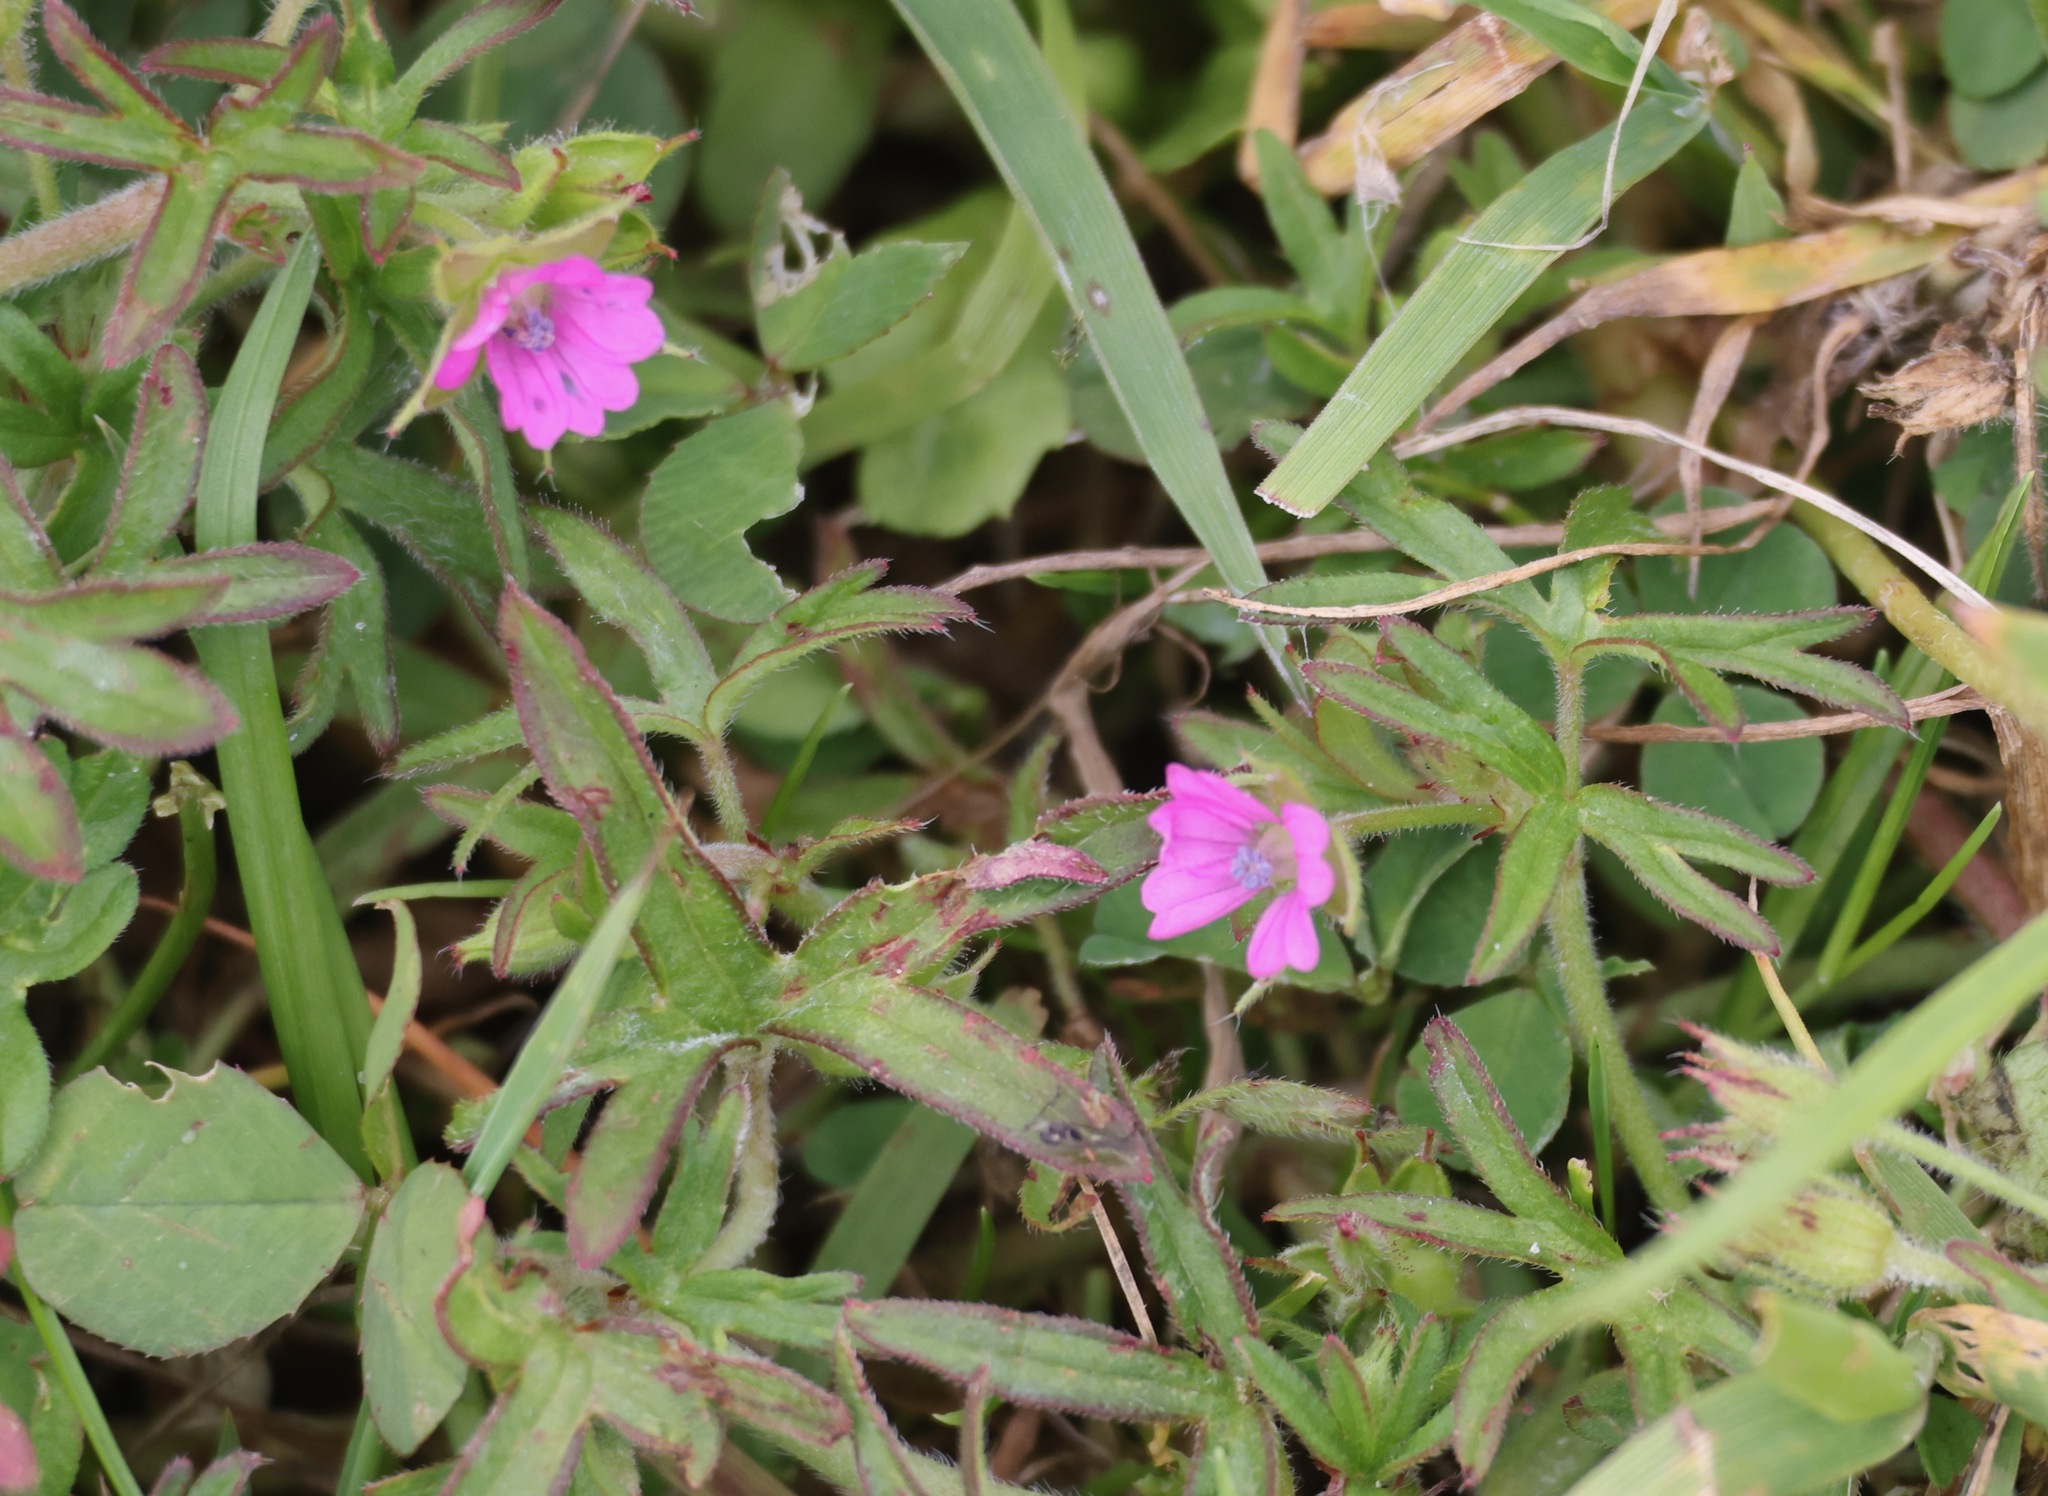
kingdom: Plantae
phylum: Tracheophyta
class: Magnoliopsida
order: Geraniales
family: Geraniaceae
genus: Geranium
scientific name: Geranium dissectum
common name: Cut-leaved crane's-bill
